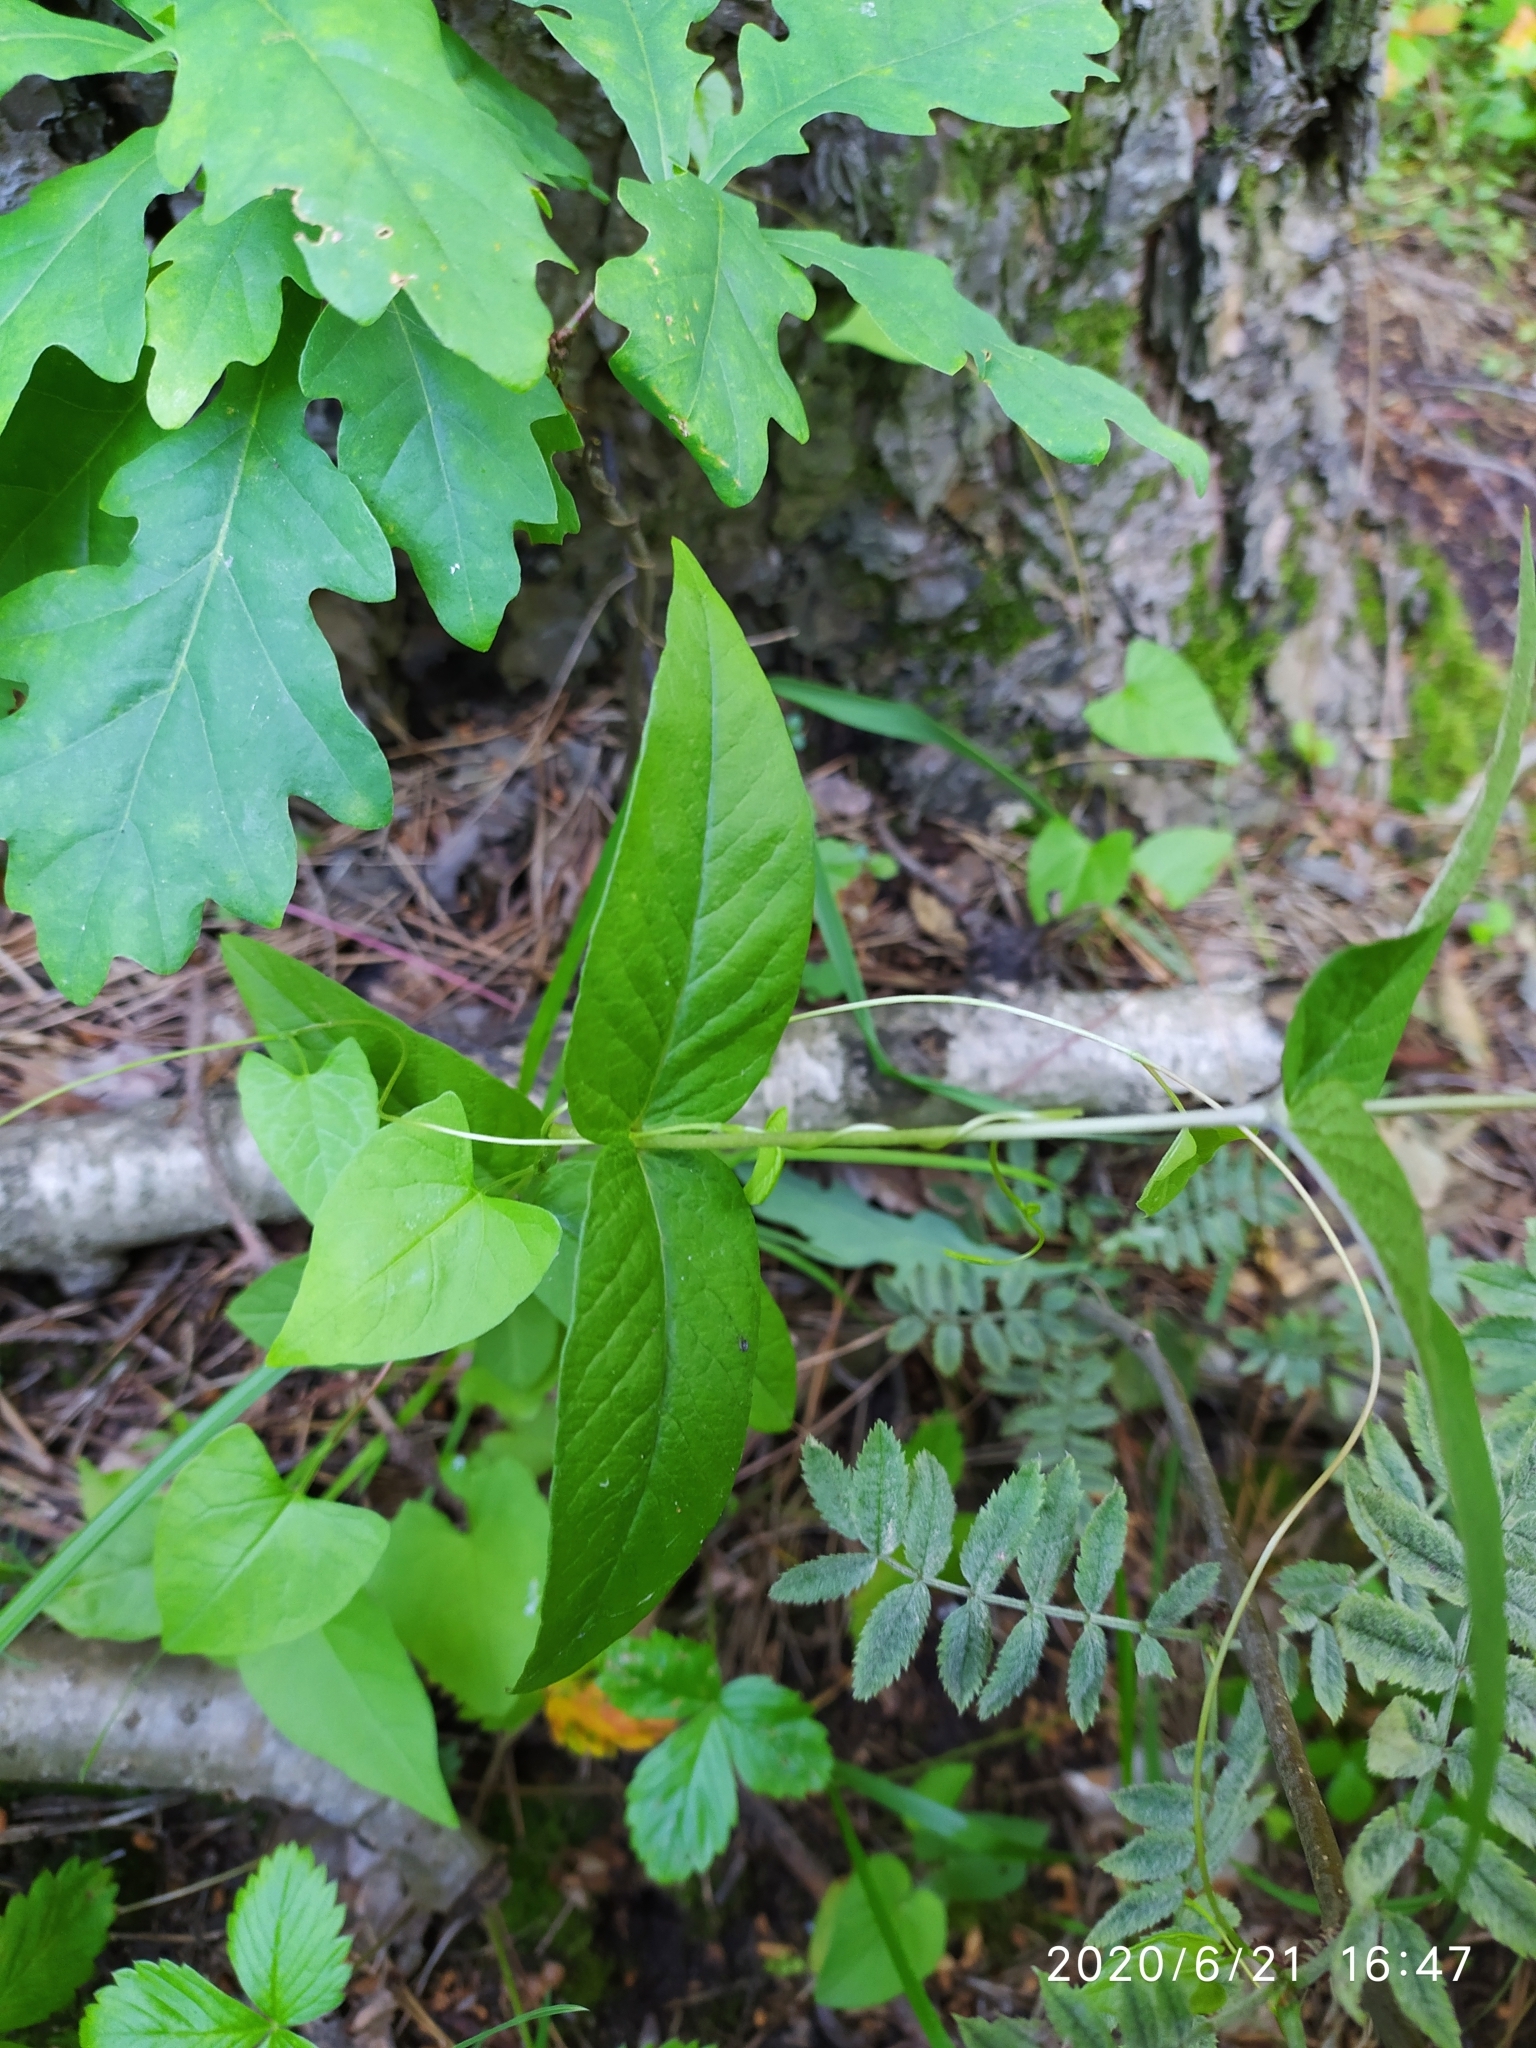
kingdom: Plantae
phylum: Tracheophyta
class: Magnoliopsida
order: Caryophyllales
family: Polygonaceae
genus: Fallopia
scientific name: Fallopia convolvulus
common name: Black bindweed
